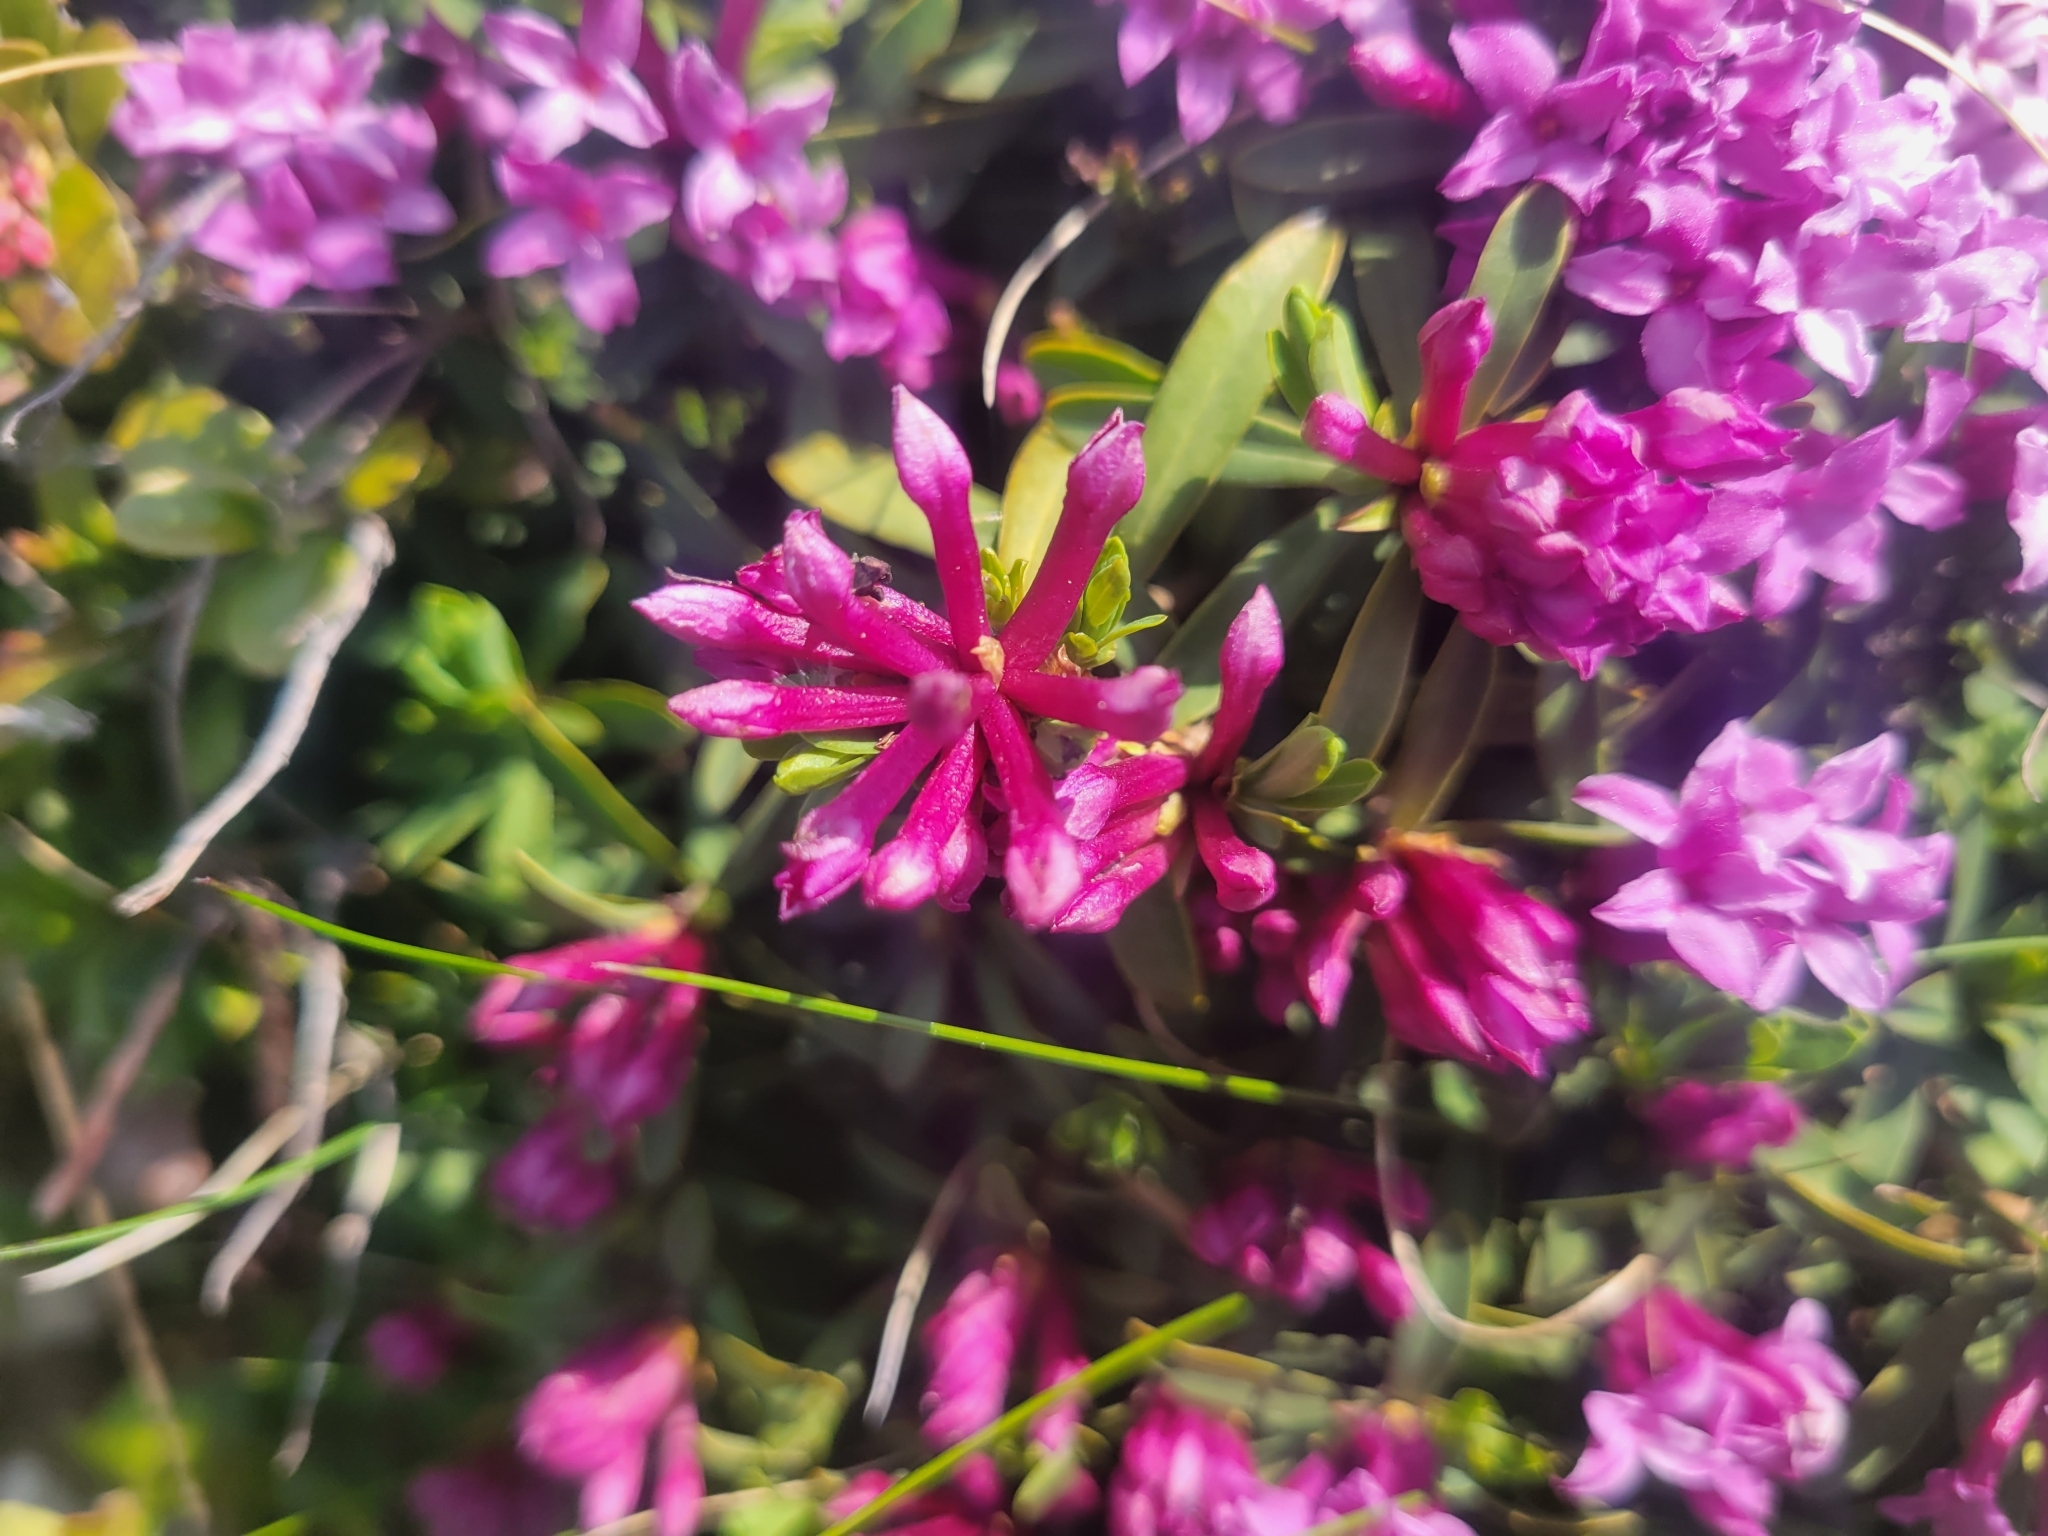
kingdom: Plantae
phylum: Tracheophyta
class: Magnoliopsida
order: Malvales
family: Thymelaeaceae
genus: Daphne
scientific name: Daphne striata
